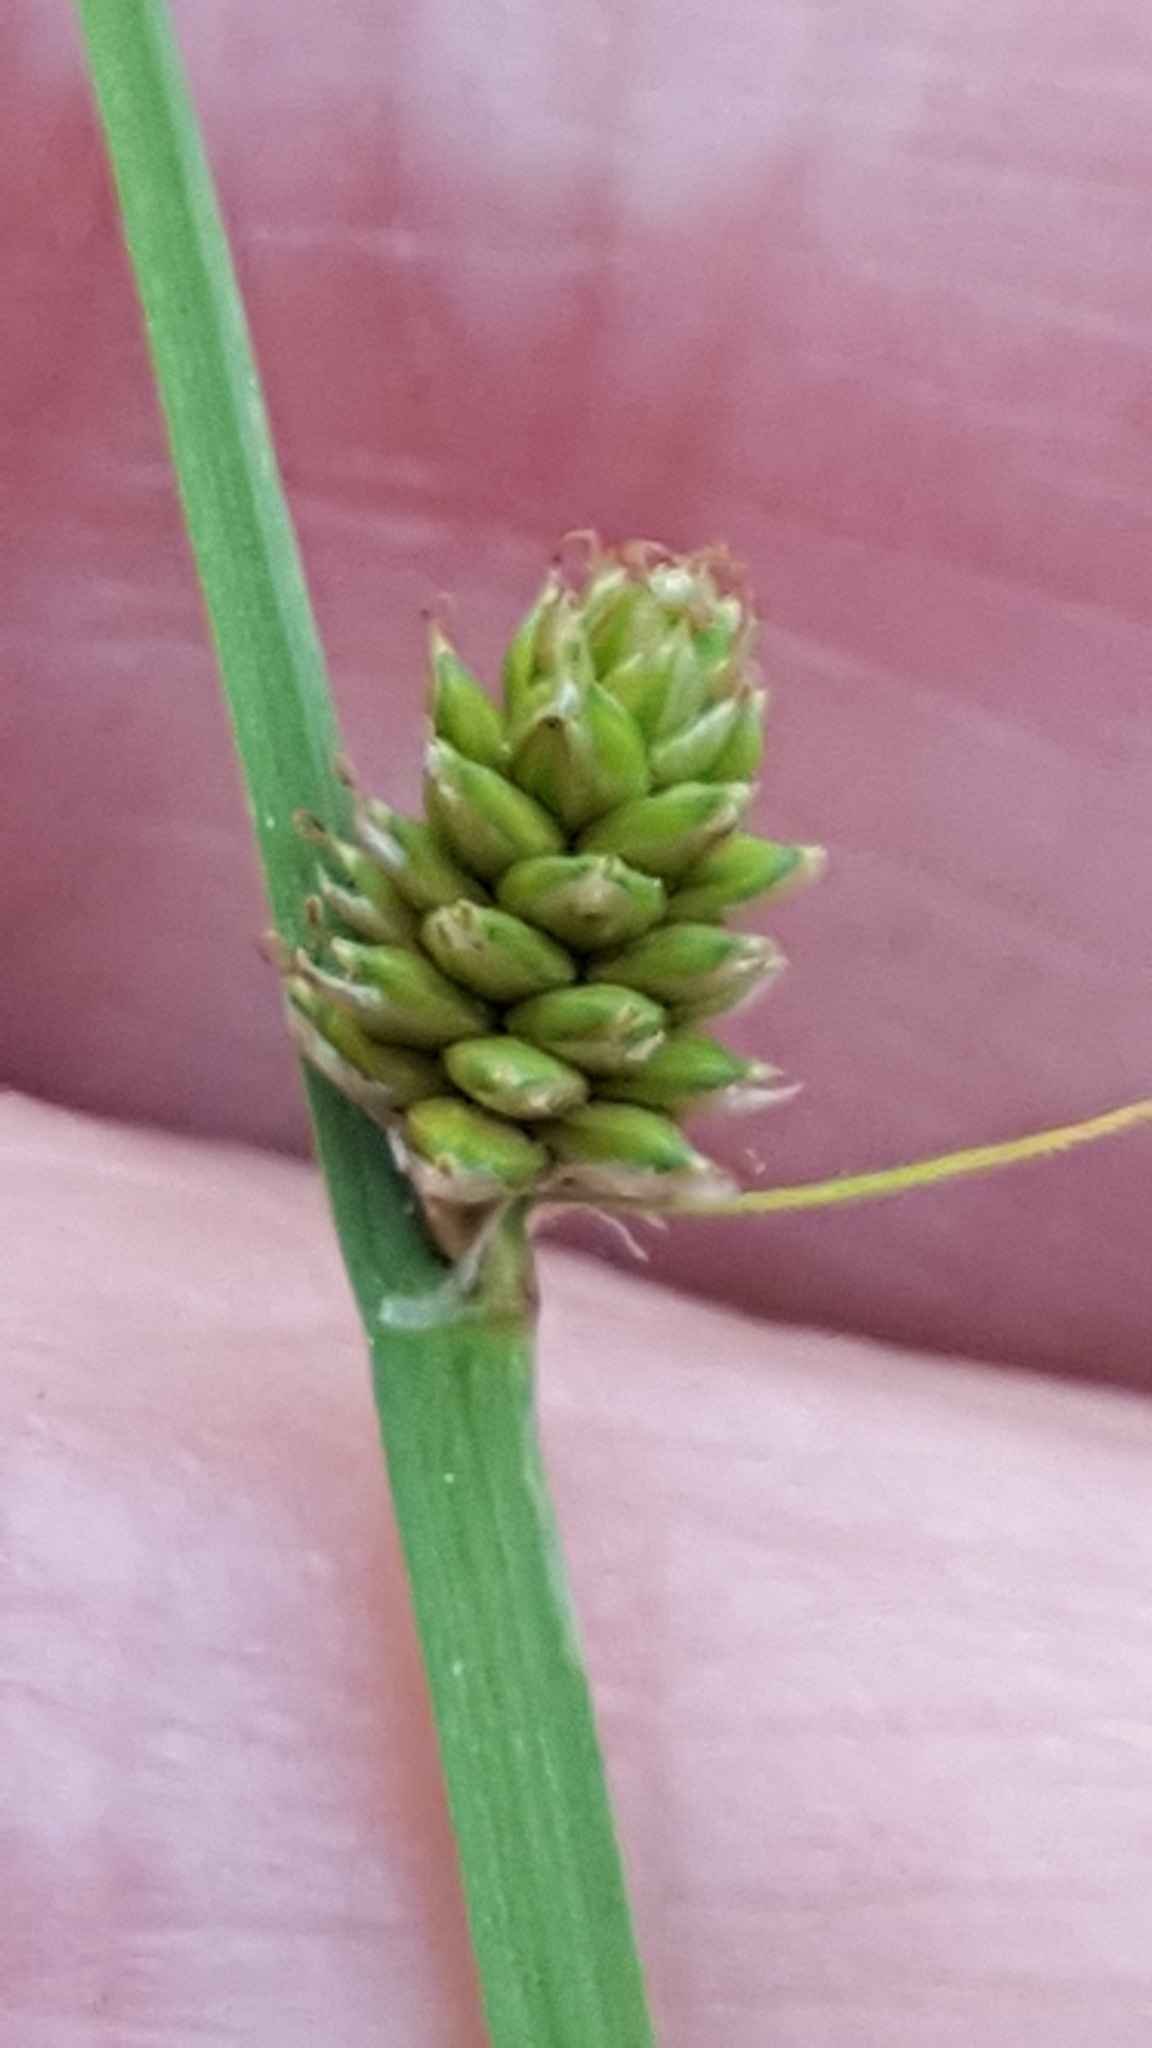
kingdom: Plantae
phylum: Tracheophyta
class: Liliopsida
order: Poales
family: Cyperaceae
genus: Carex
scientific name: Carex canescens
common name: White sedge
